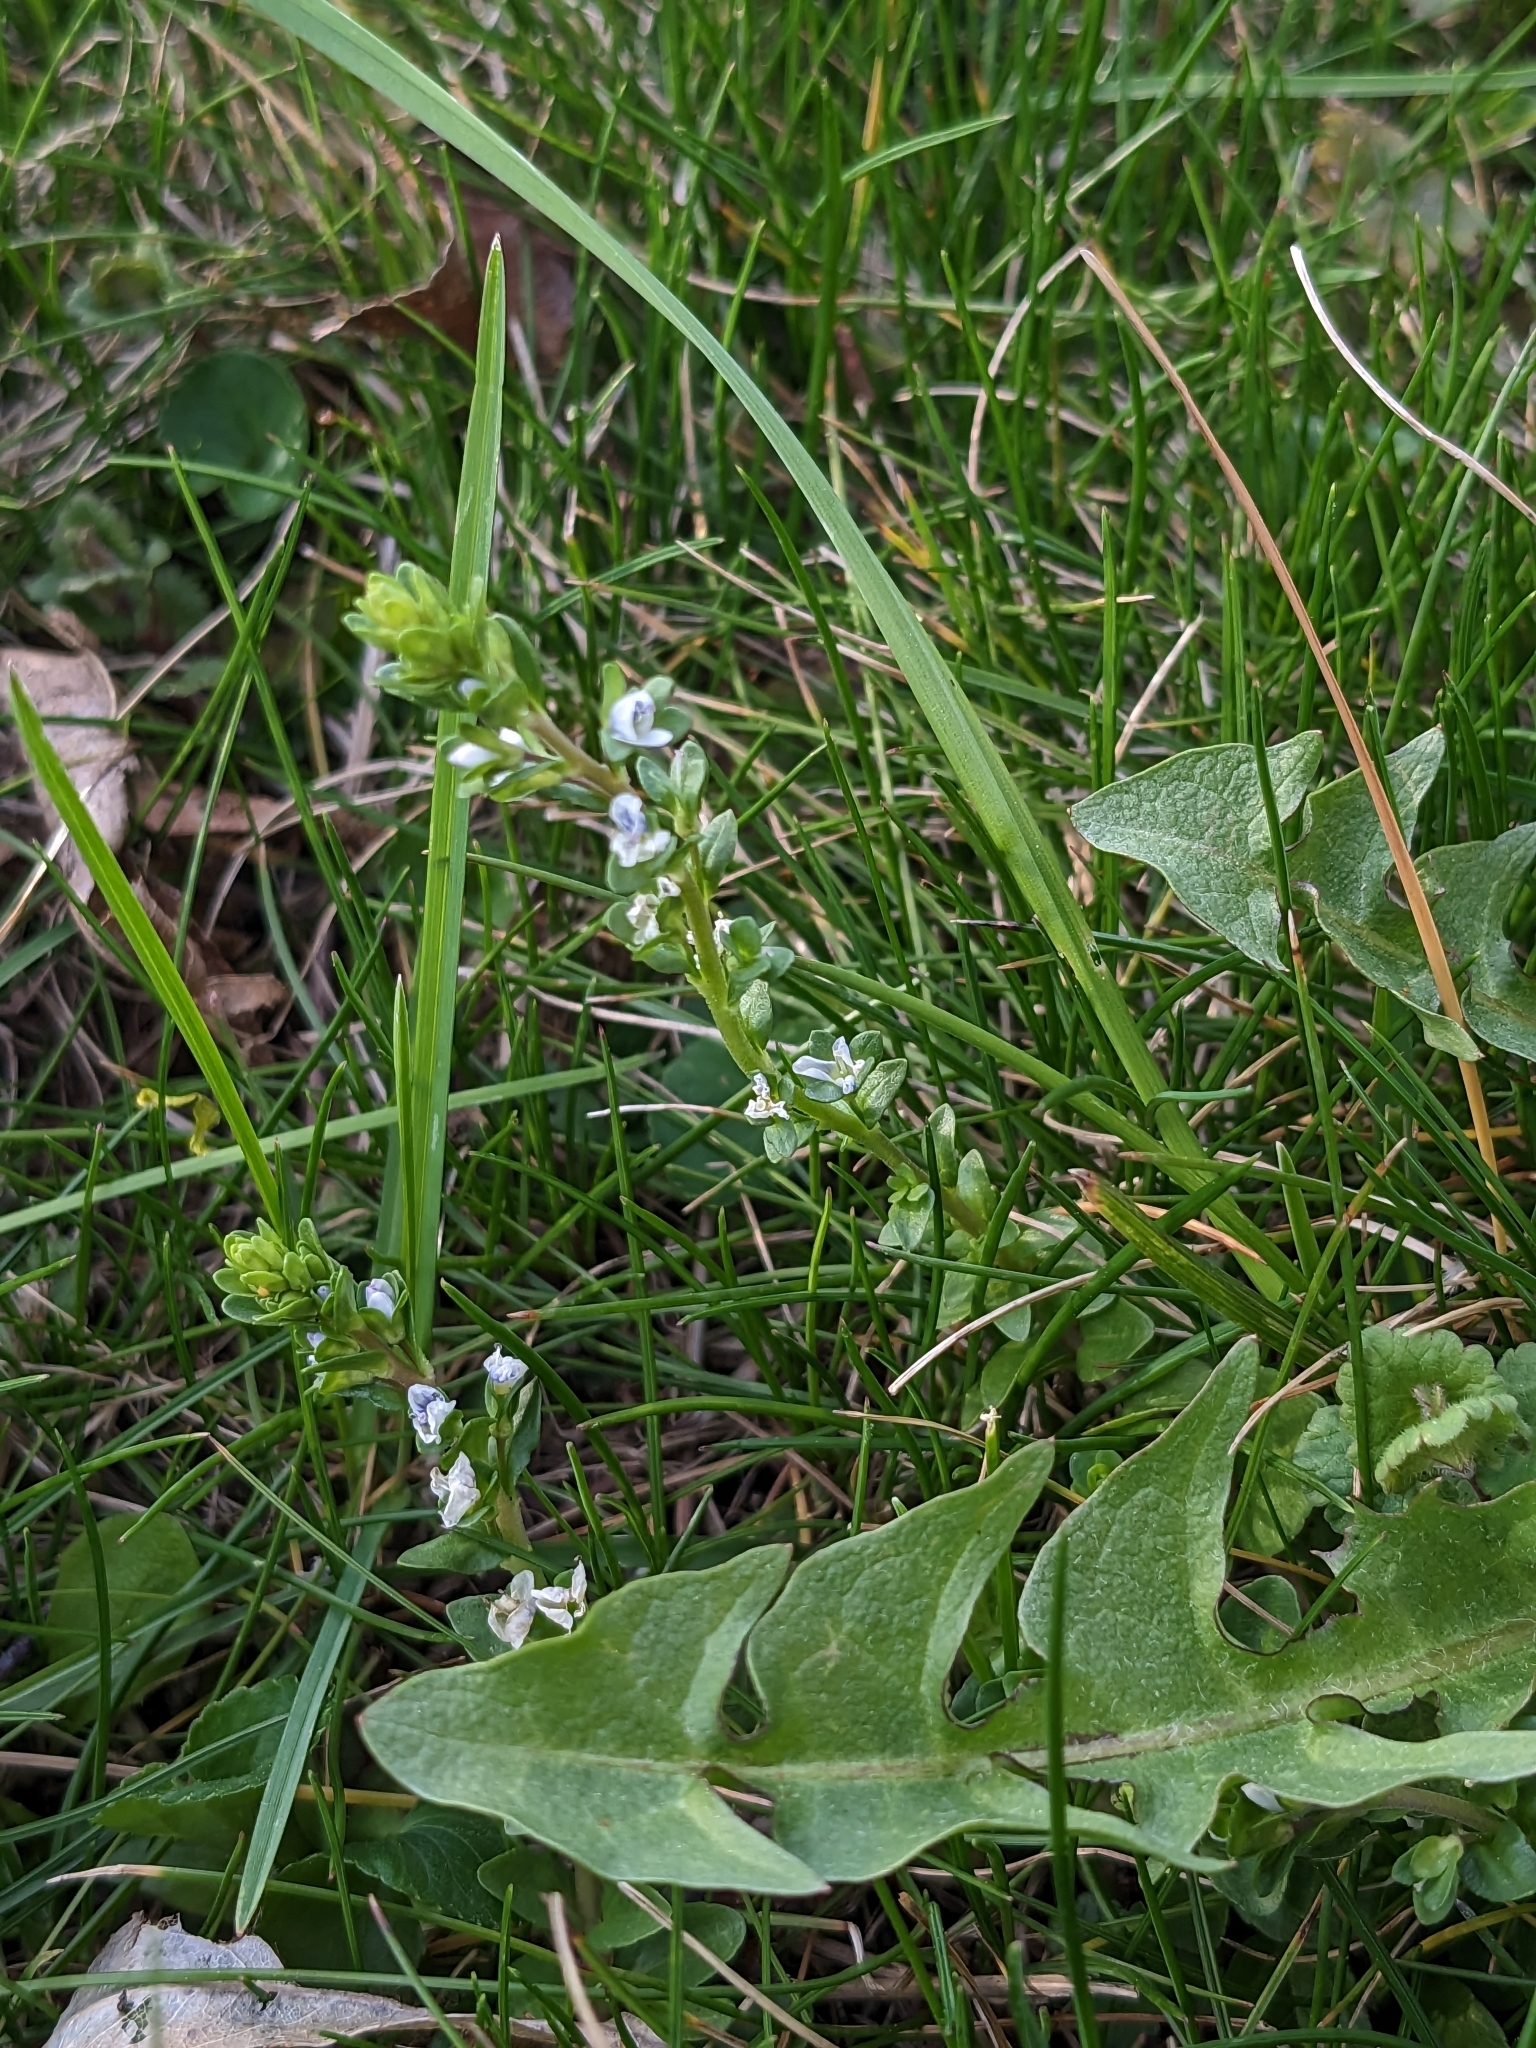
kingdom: Plantae
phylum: Tracheophyta
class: Magnoliopsida
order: Lamiales
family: Plantaginaceae
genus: Veronica
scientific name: Veronica serpyllifolia
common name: Thyme-leaved speedwell
